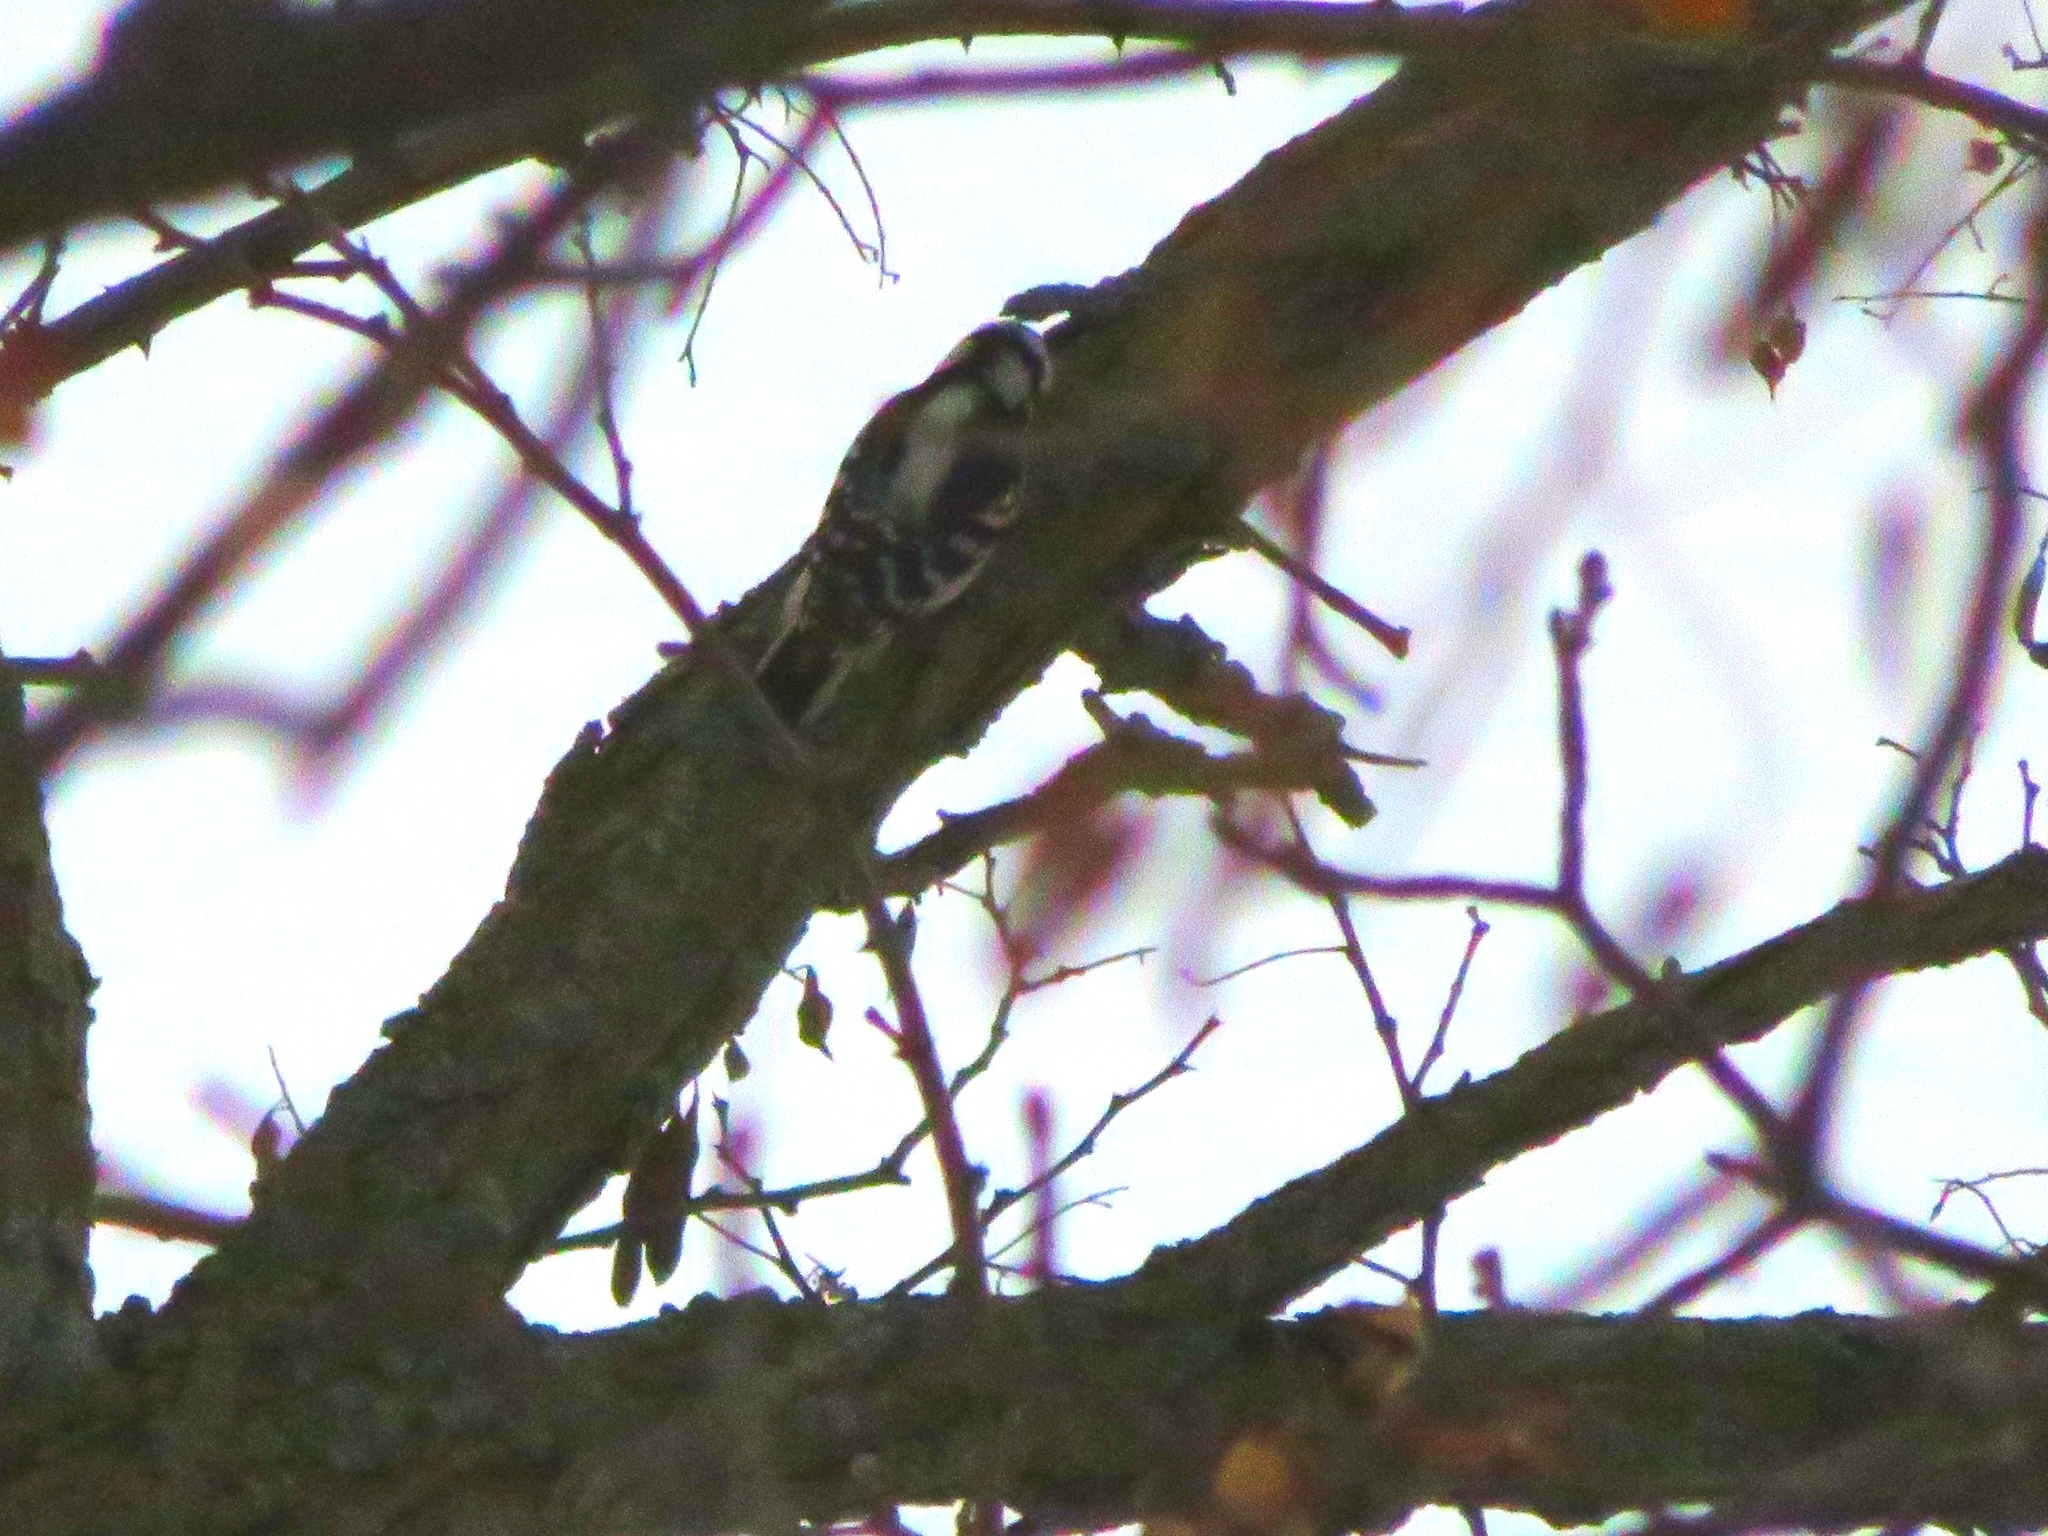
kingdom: Animalia
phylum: Chordata
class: Aves
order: Piciformes
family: Picidae
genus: Dryobates
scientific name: Dryobates pubescens
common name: Downy woodpecker
